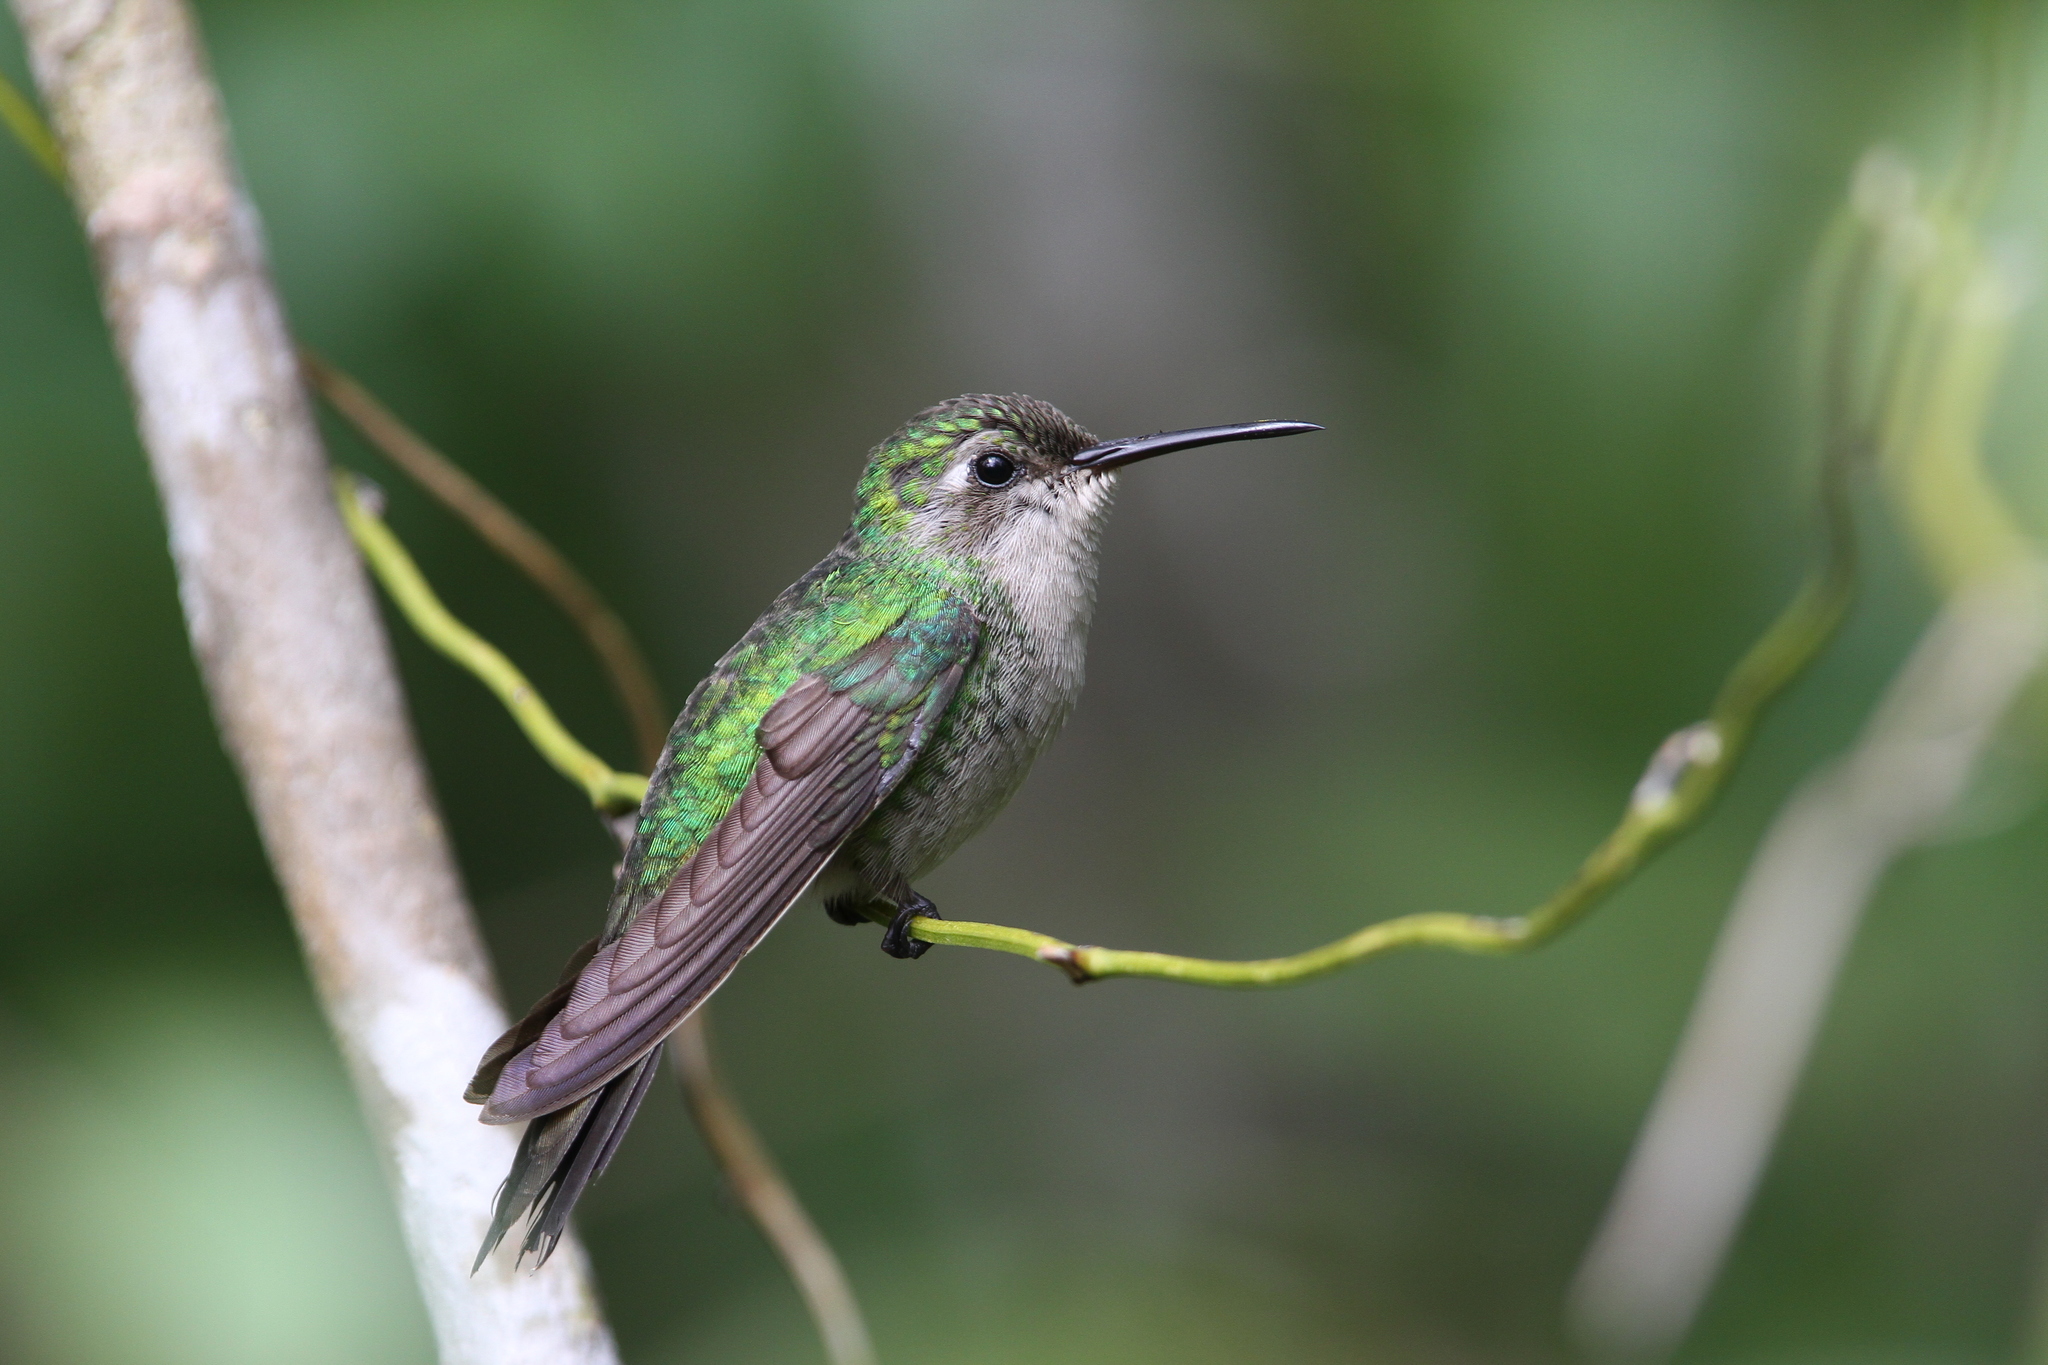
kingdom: Animalia
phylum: Chordata
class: Aves
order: Apodiformes
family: Trochilidae
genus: Riccordia
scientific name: Riccordia ricordii
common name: Cuban emerald
